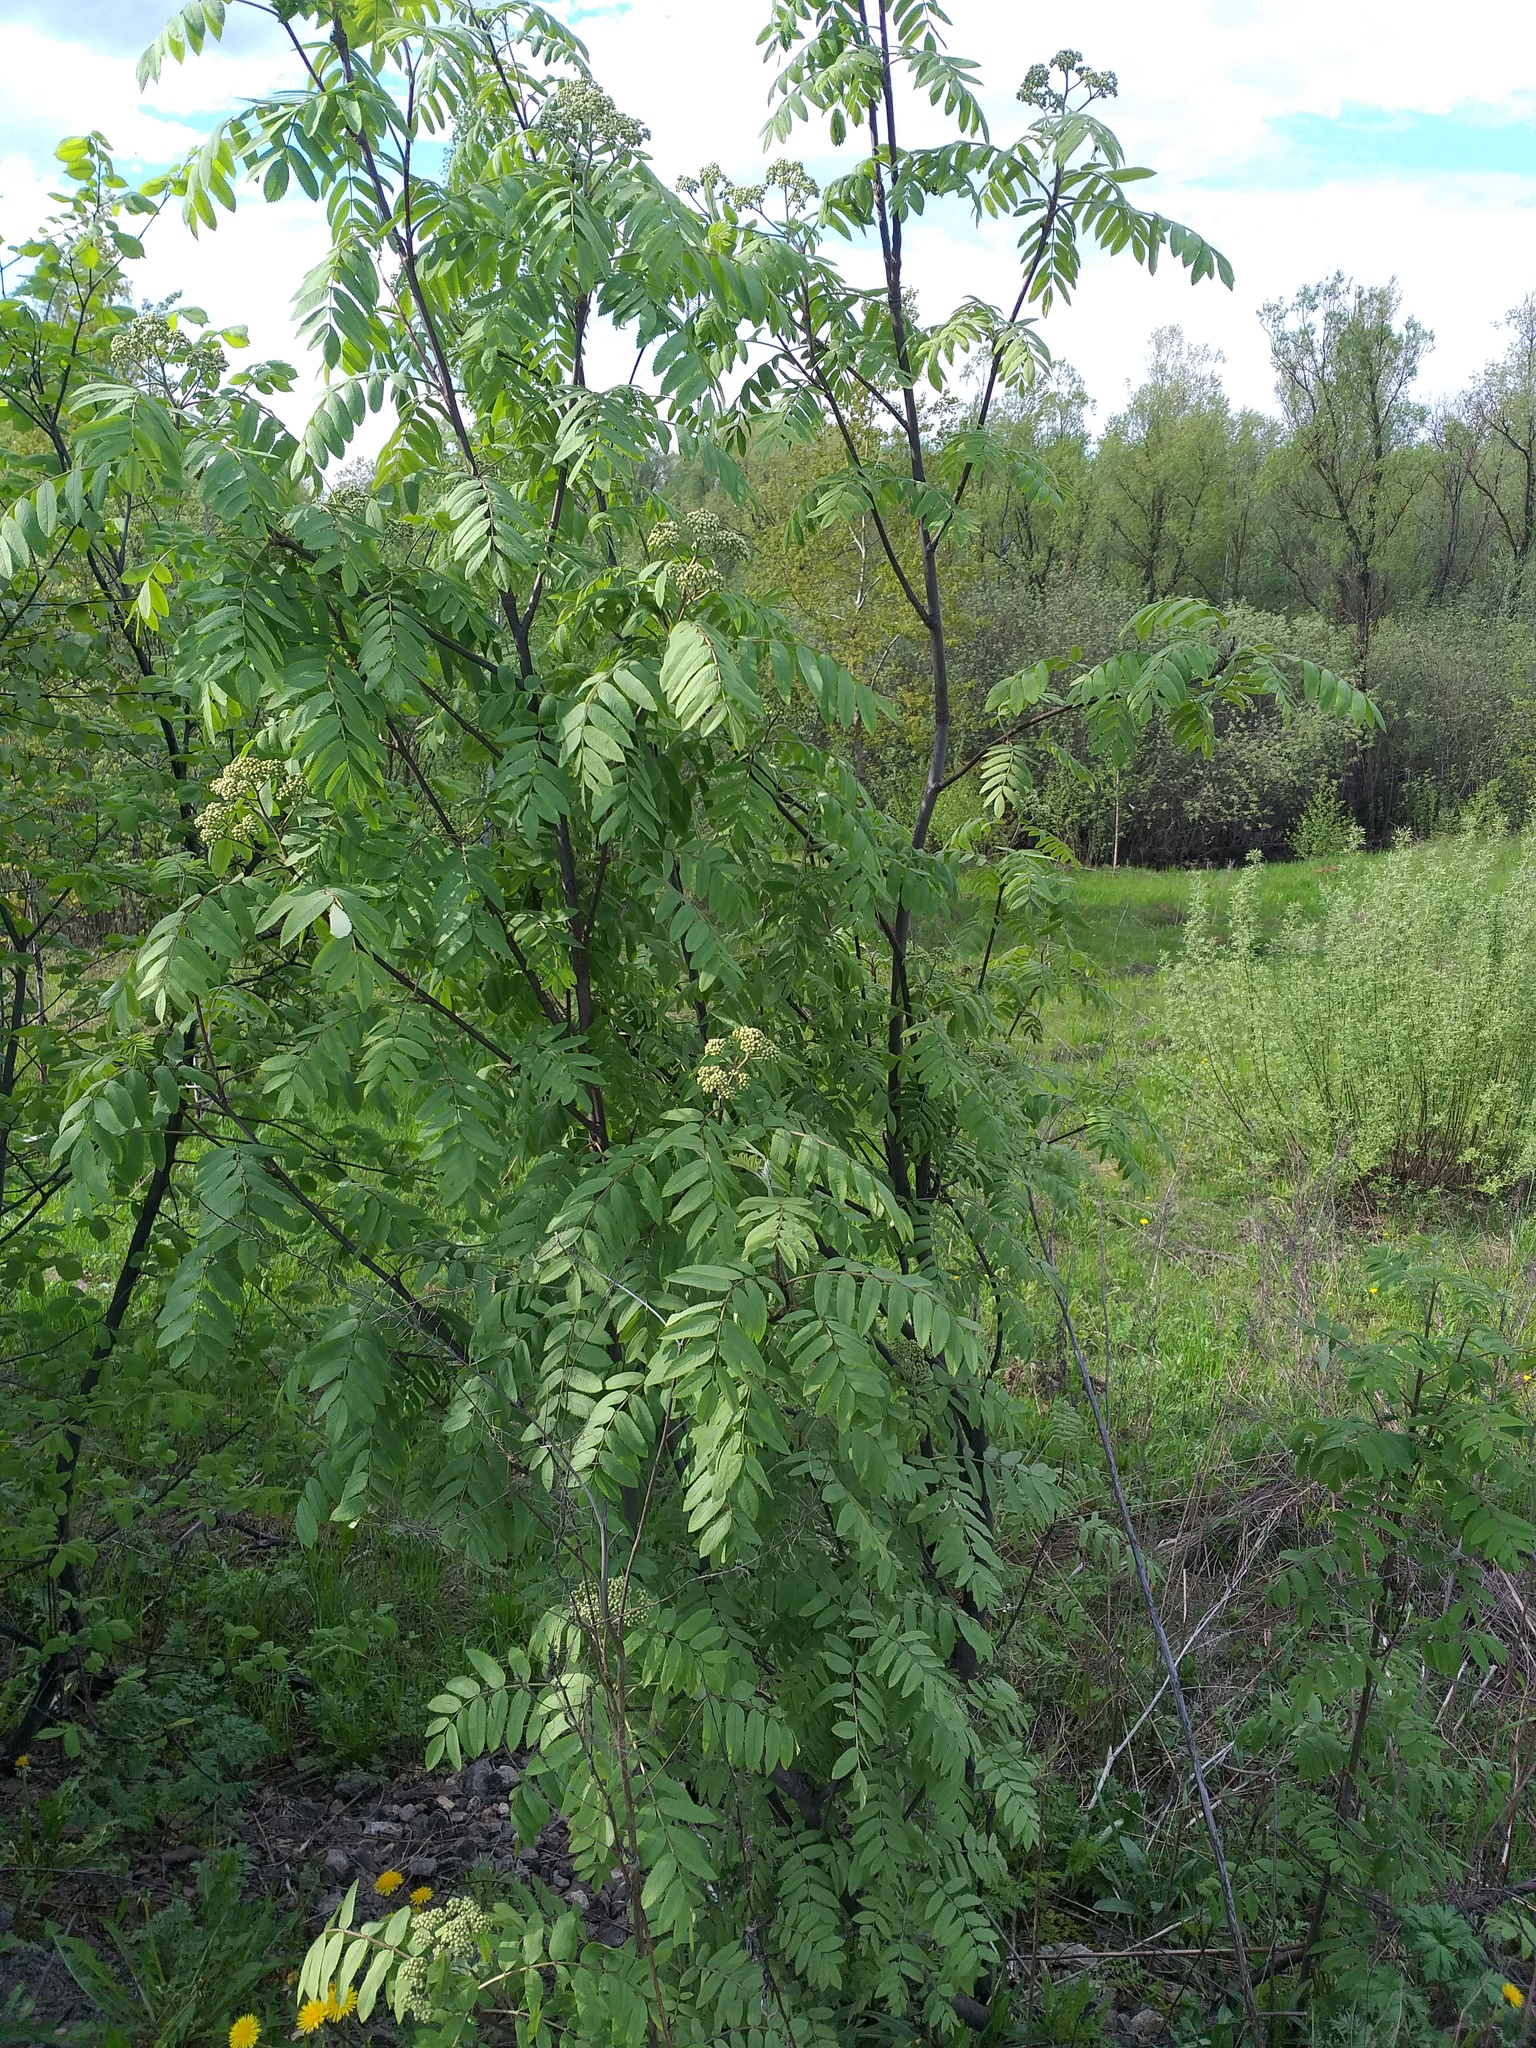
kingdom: Plantae
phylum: Tracheophyta
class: Magnoliopsida
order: Rosales
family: Rosaceae
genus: Sorbus
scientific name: Sorbus aucuparia
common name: Rowan
